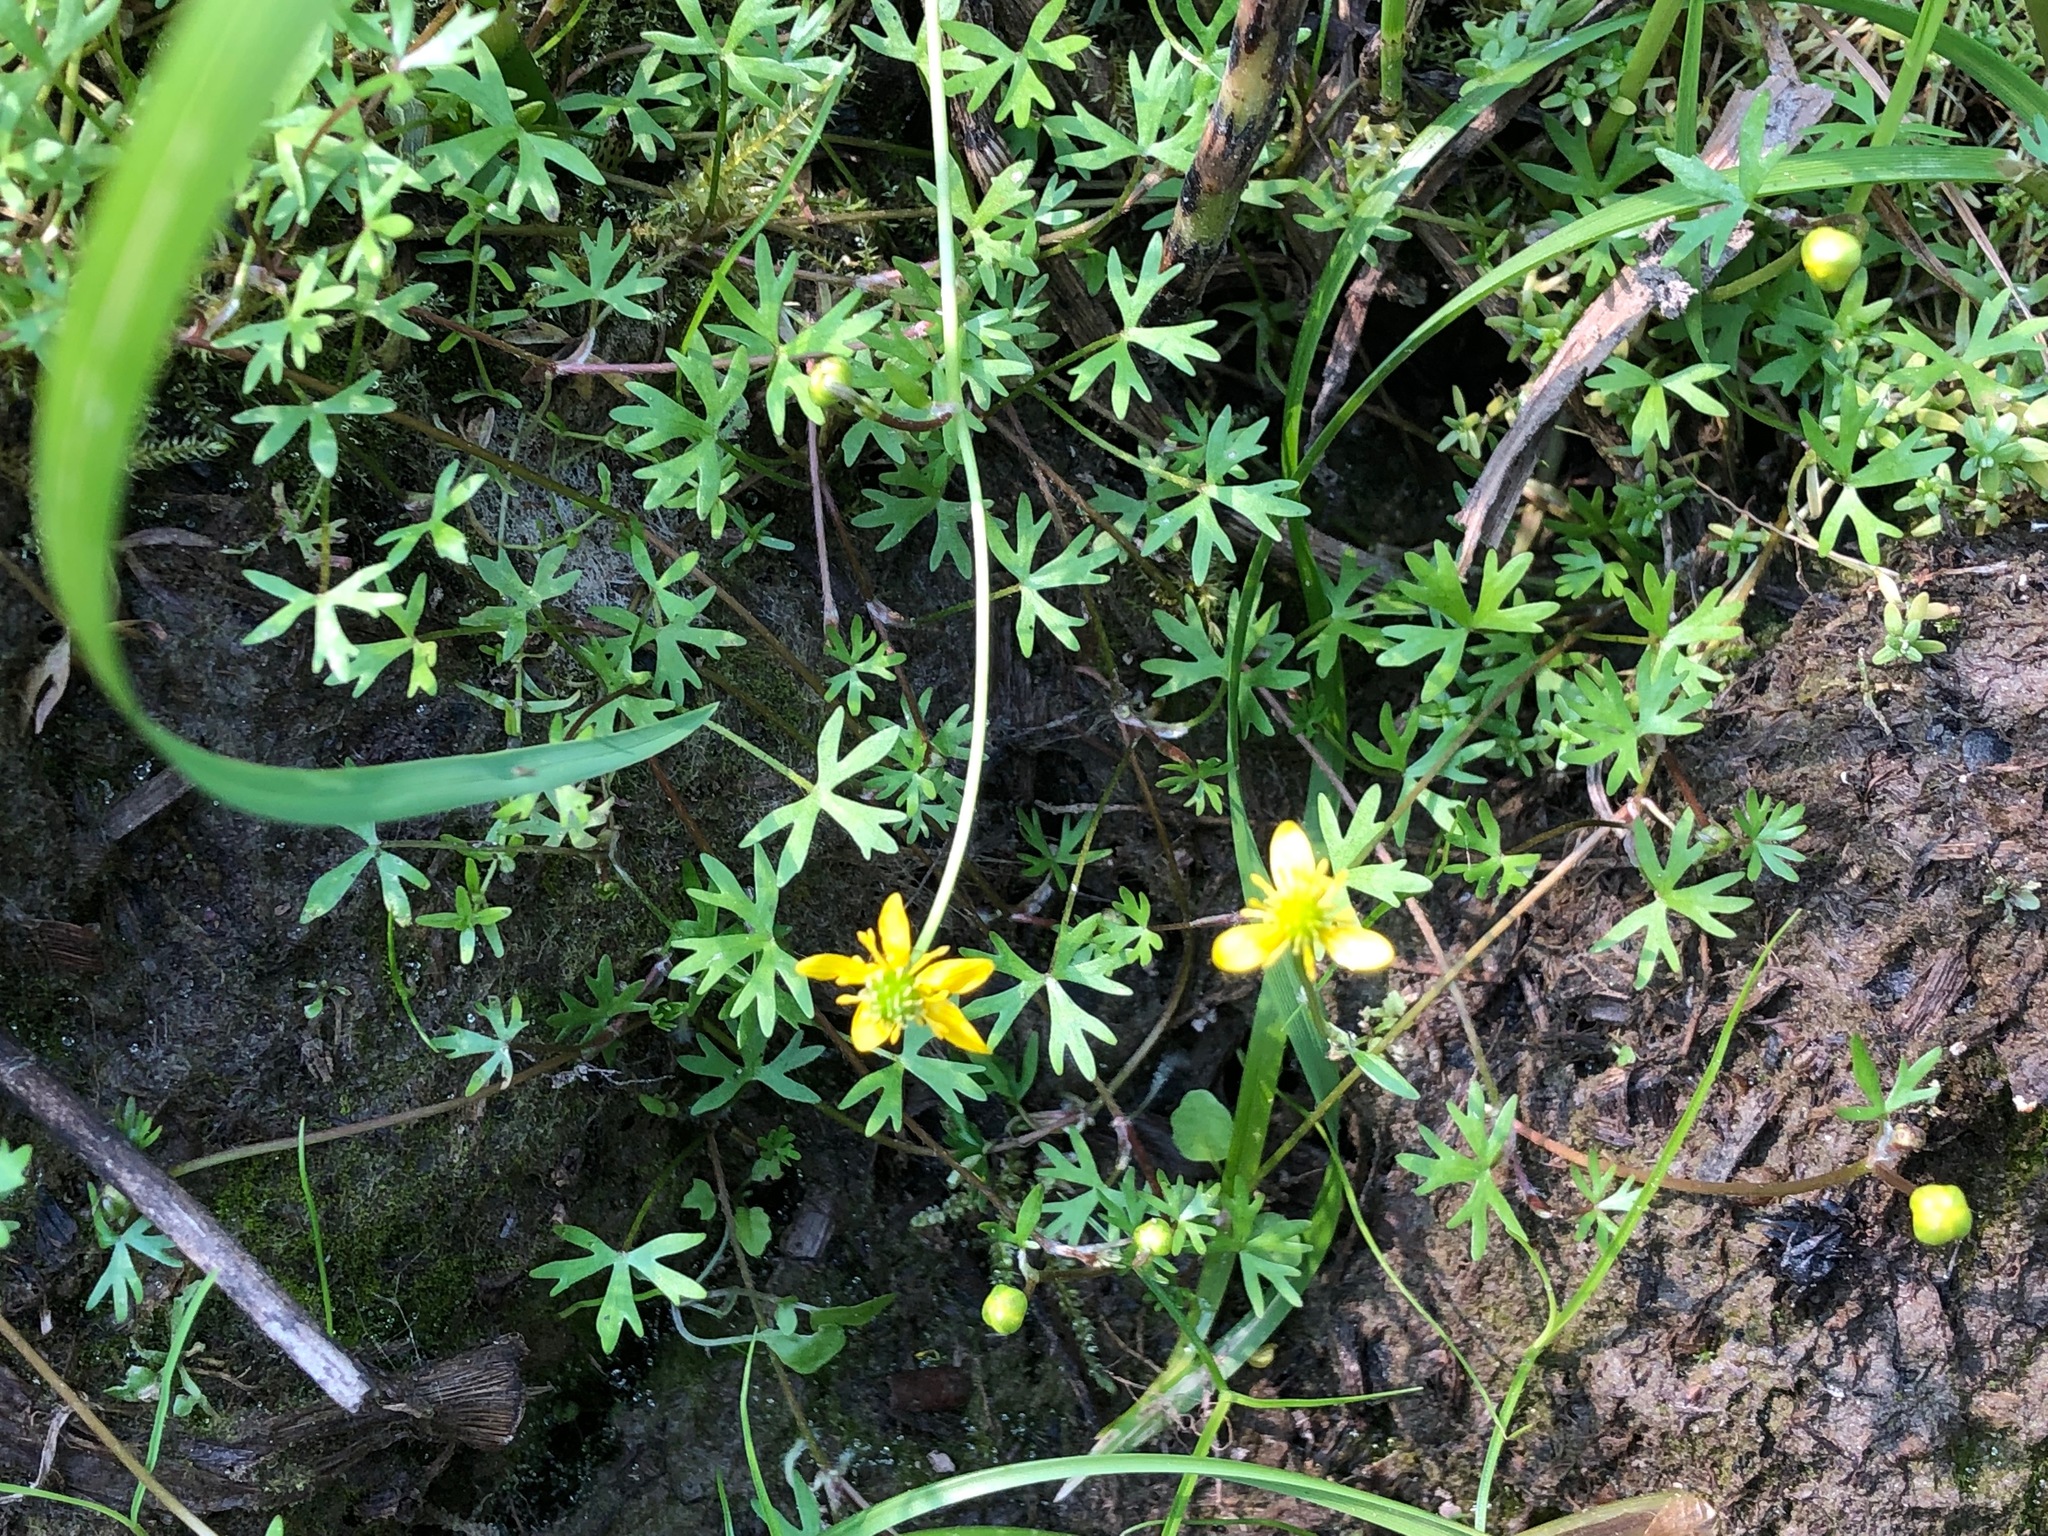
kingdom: Plantae
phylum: Tracheophyta
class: Magnoliopsida
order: Ranunculales
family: Ranunculaceae
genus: Ranunculus
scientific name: Ranunculus gmelinii
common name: Gmelin's buttercup
